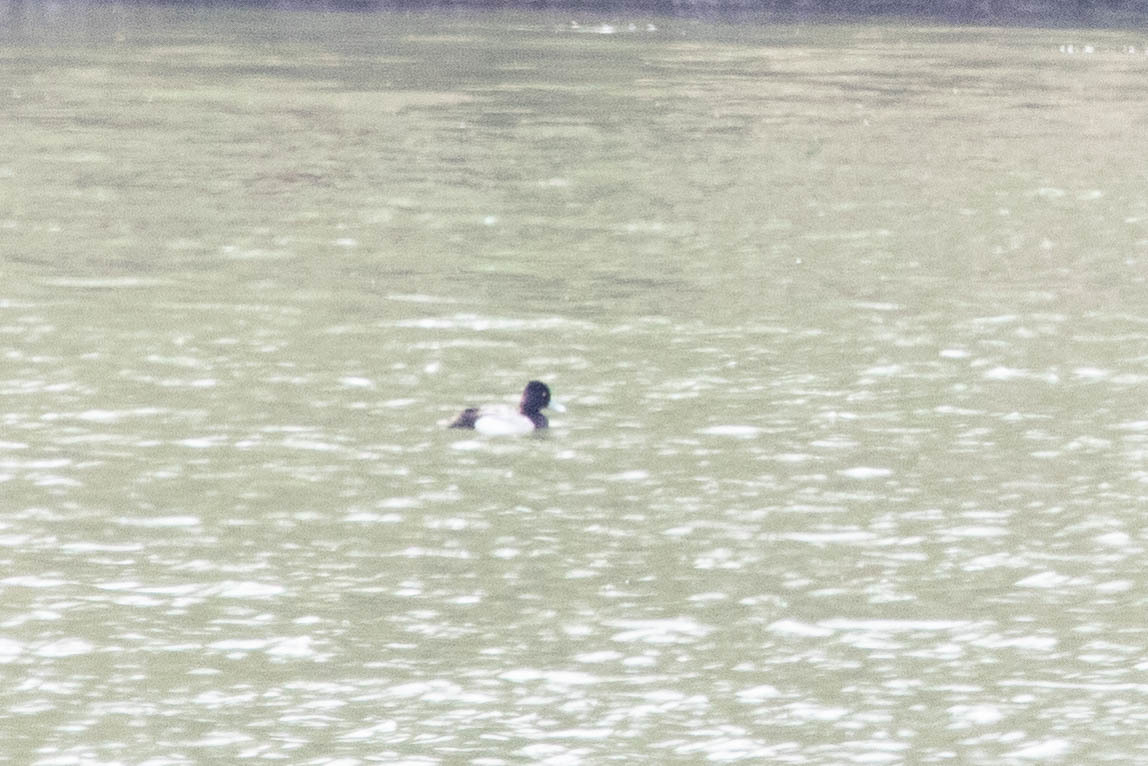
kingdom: Animalia
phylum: Chordata
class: Aves
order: Anseriformes
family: Anatidae
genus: Aythya
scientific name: Aythya affinis
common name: Lesser scaup
